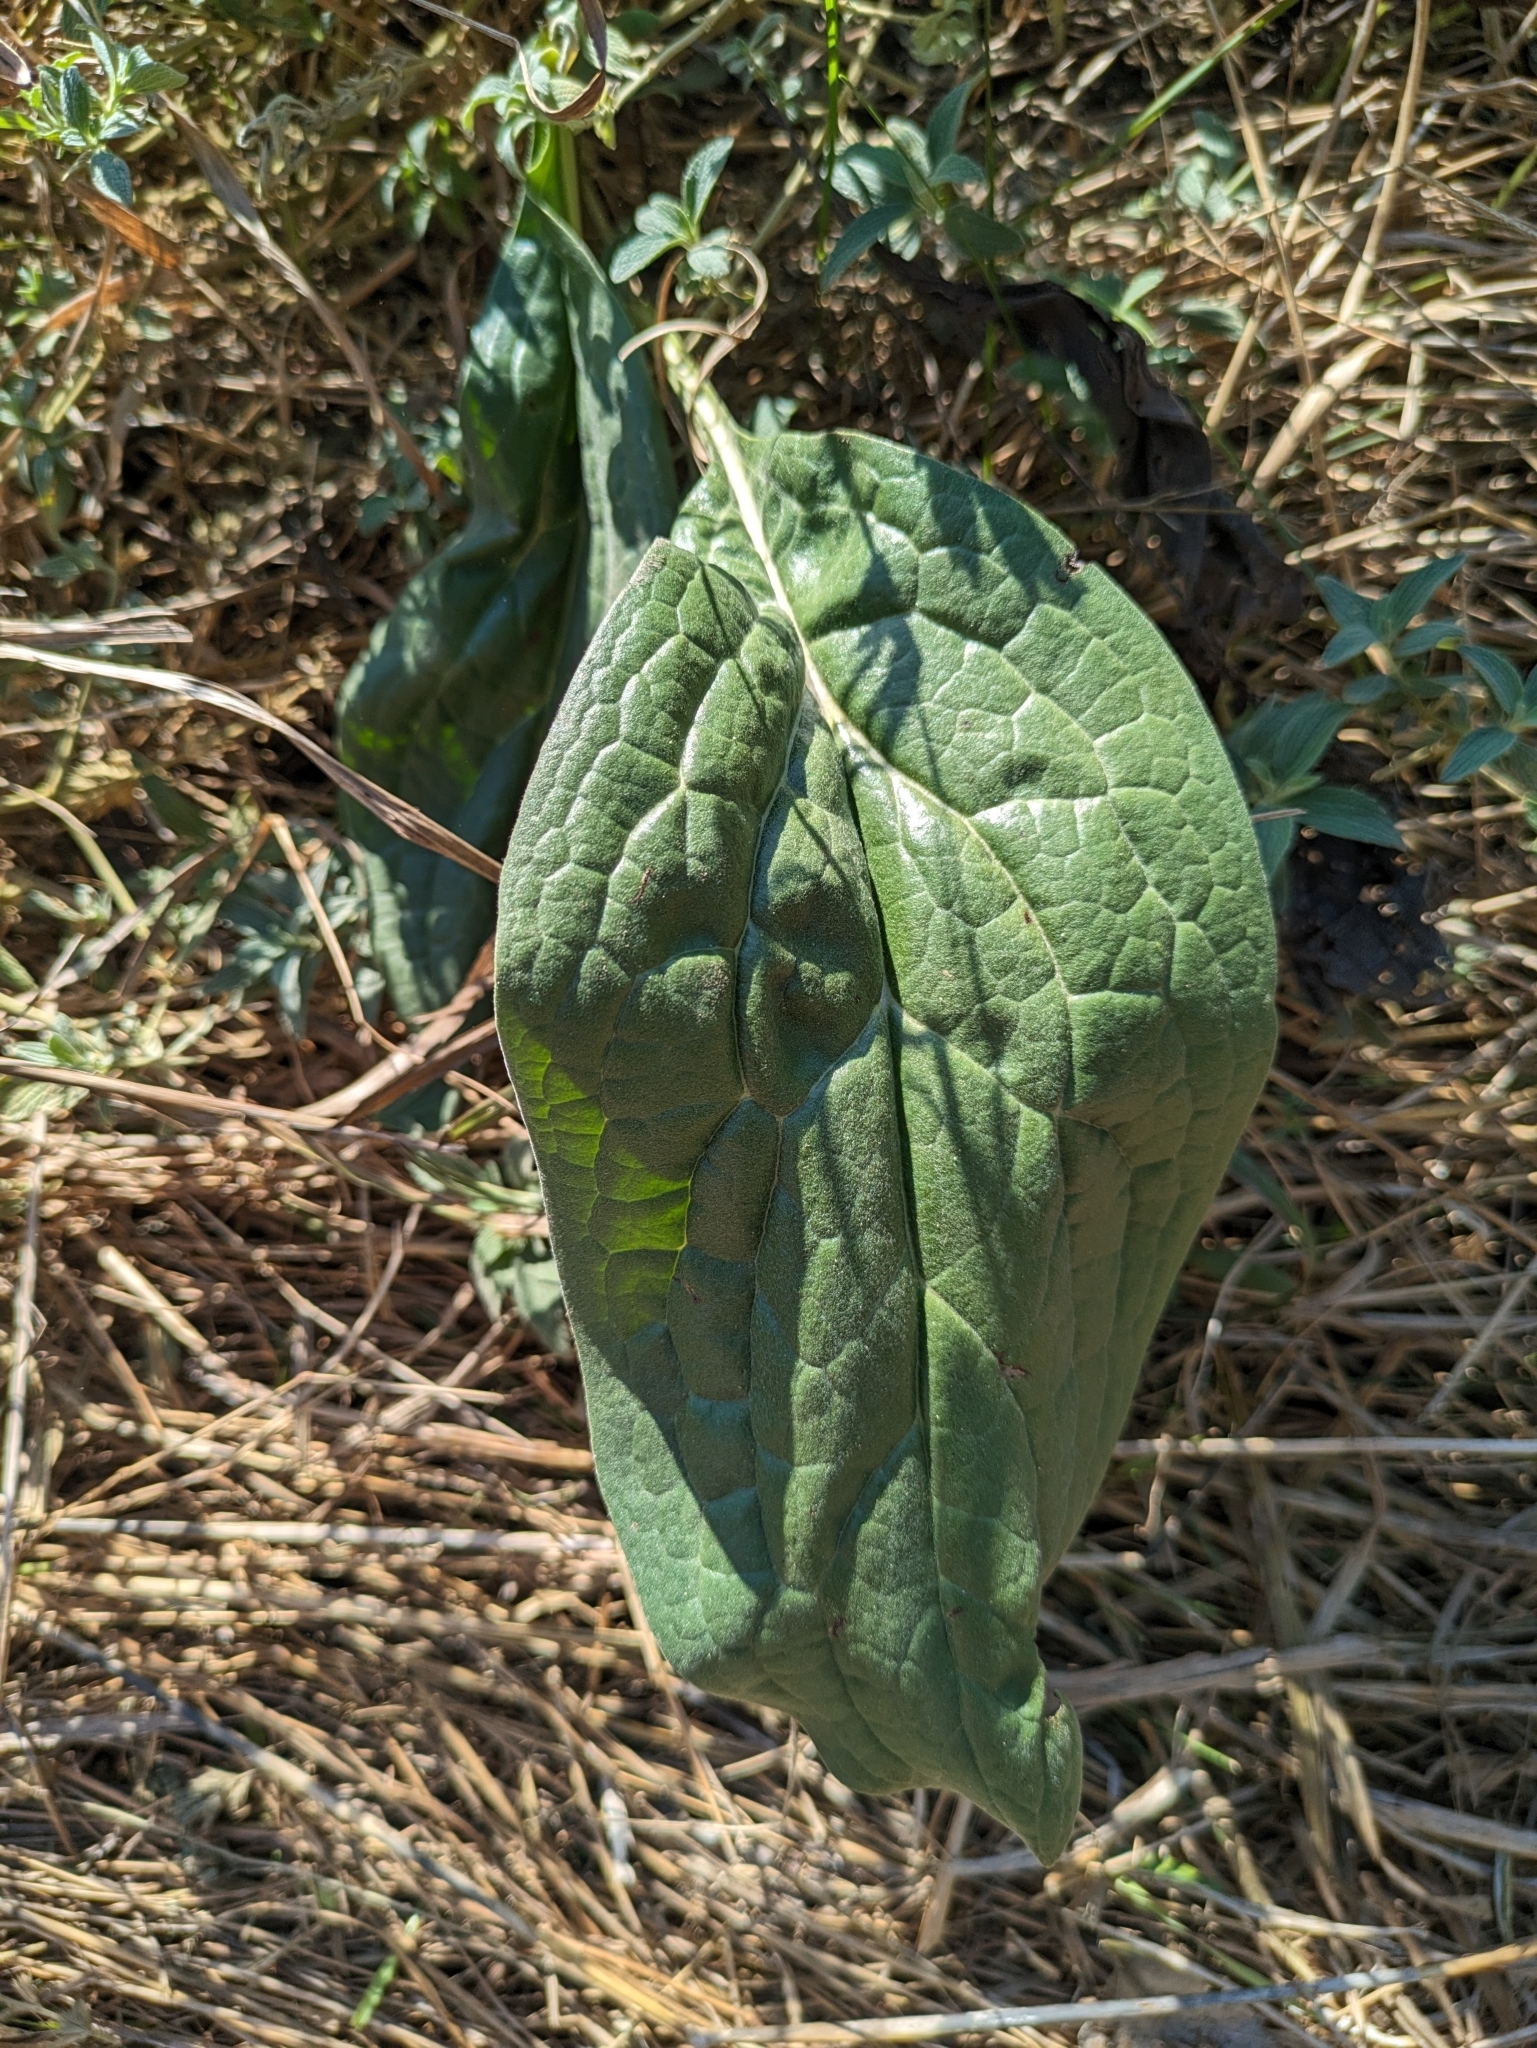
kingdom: Plantae
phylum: Tracheophyta
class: Magnoliopsida
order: Boraginales
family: Boraginaceae
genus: Cynoglossum
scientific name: Cynoglossum officinale
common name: Hound's-tongue
